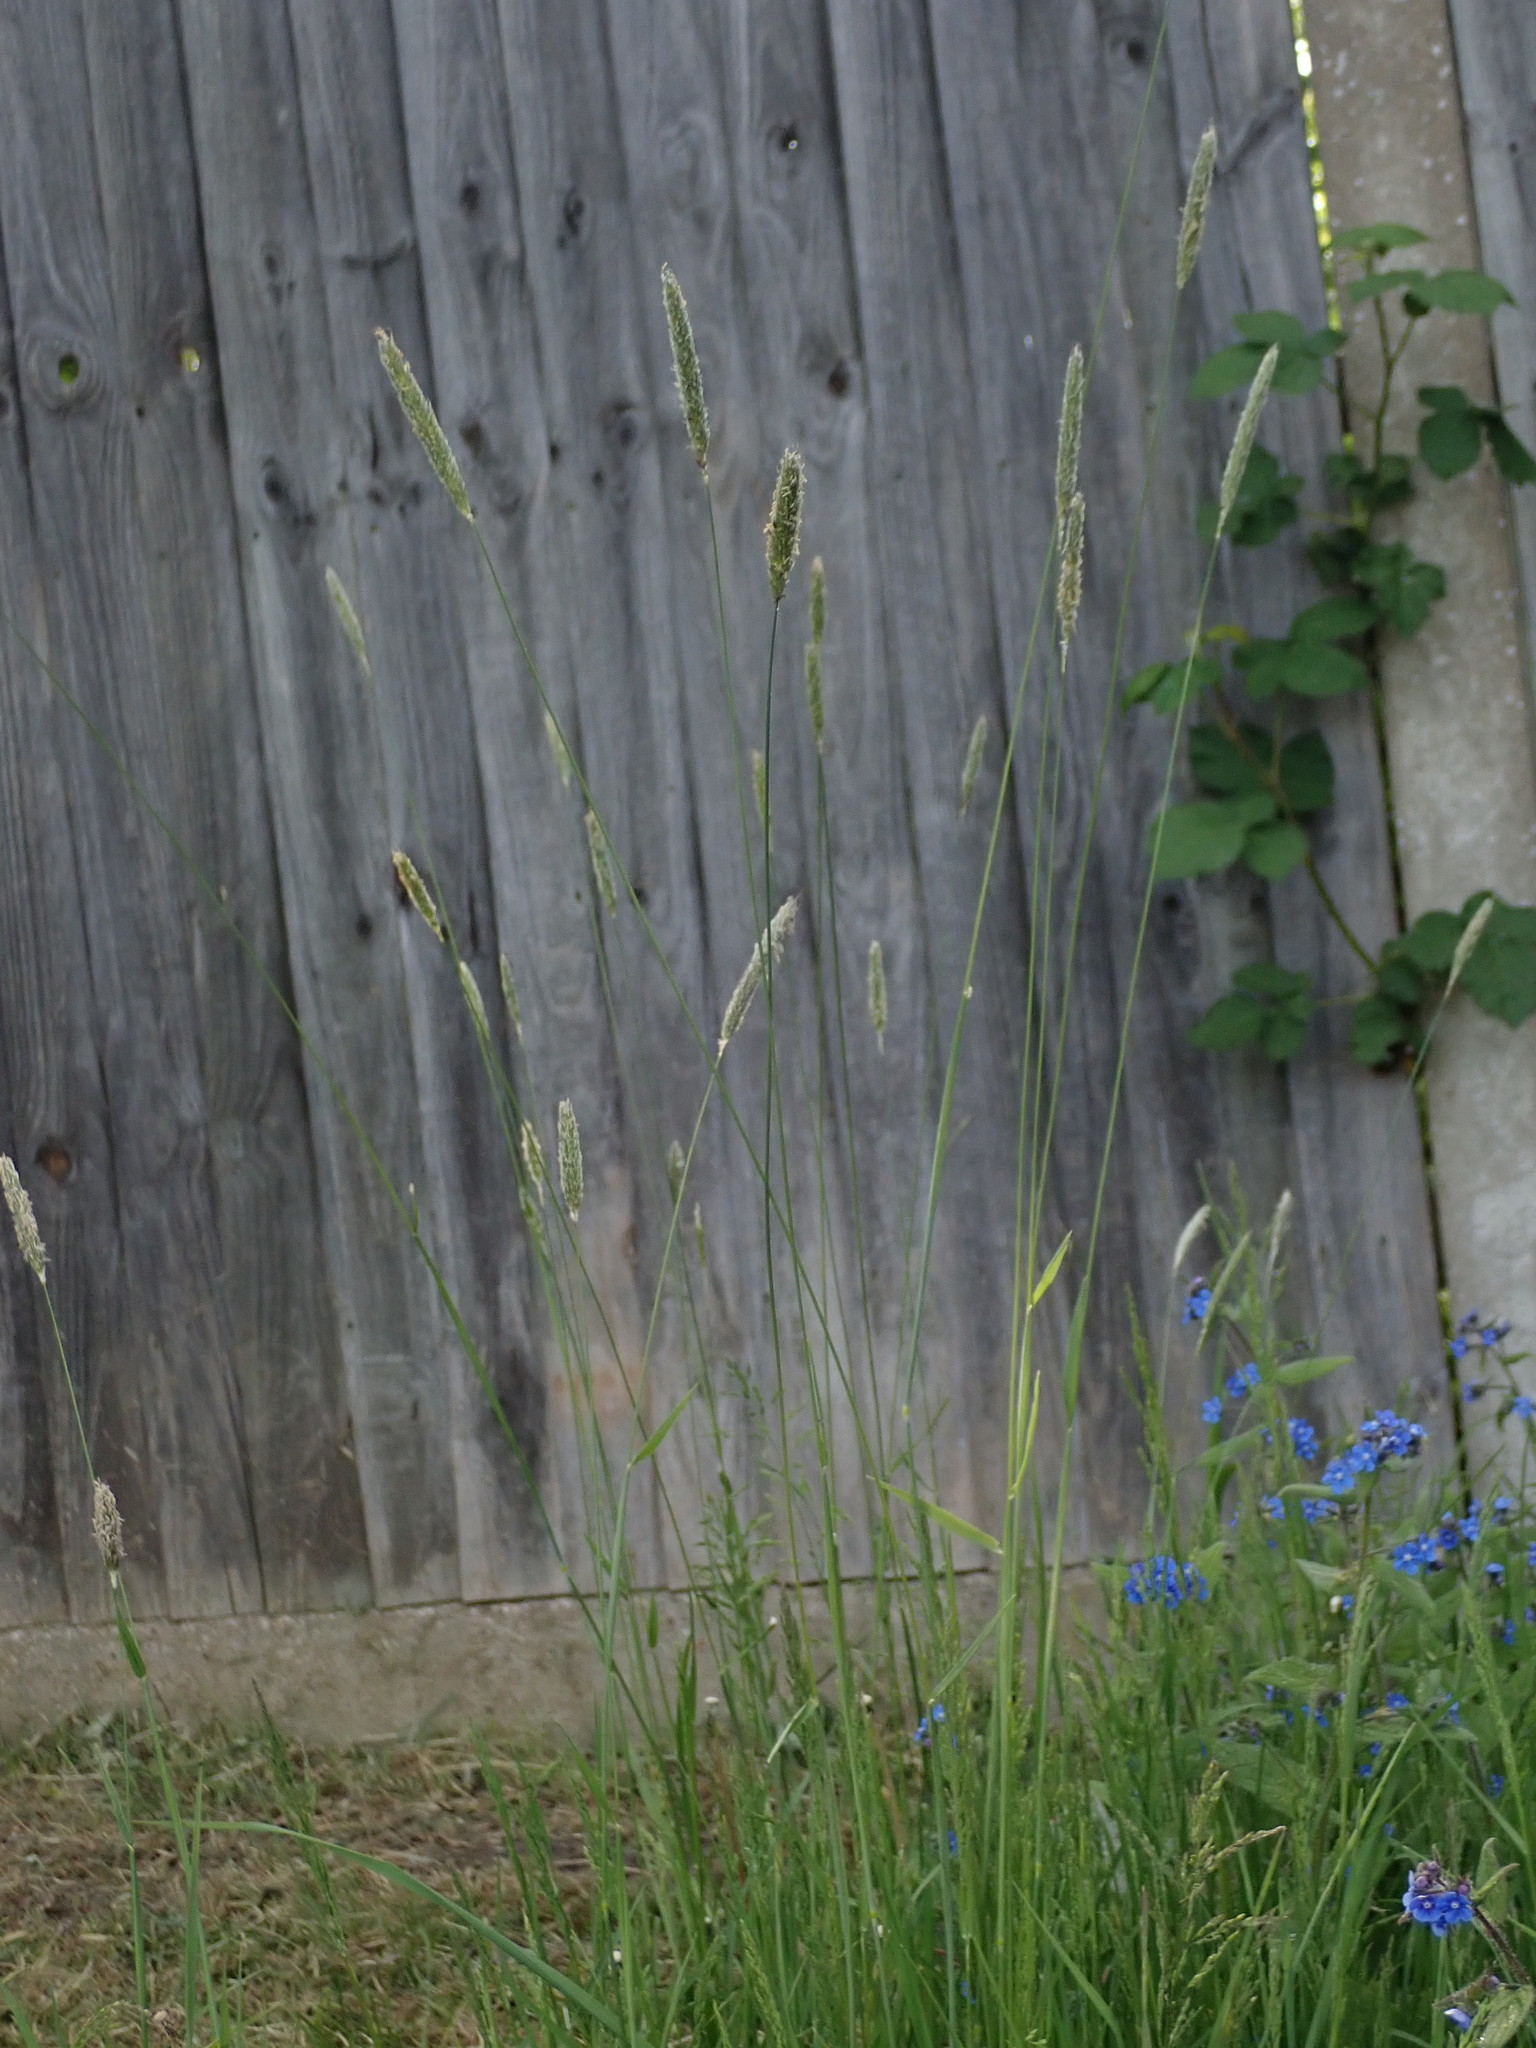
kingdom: Plantae
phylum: Tracheophyta
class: Liliopsida
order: Poales
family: Poaceae
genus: Alopecurus
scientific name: Alopecurus pratensis
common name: Meadow foxtail
